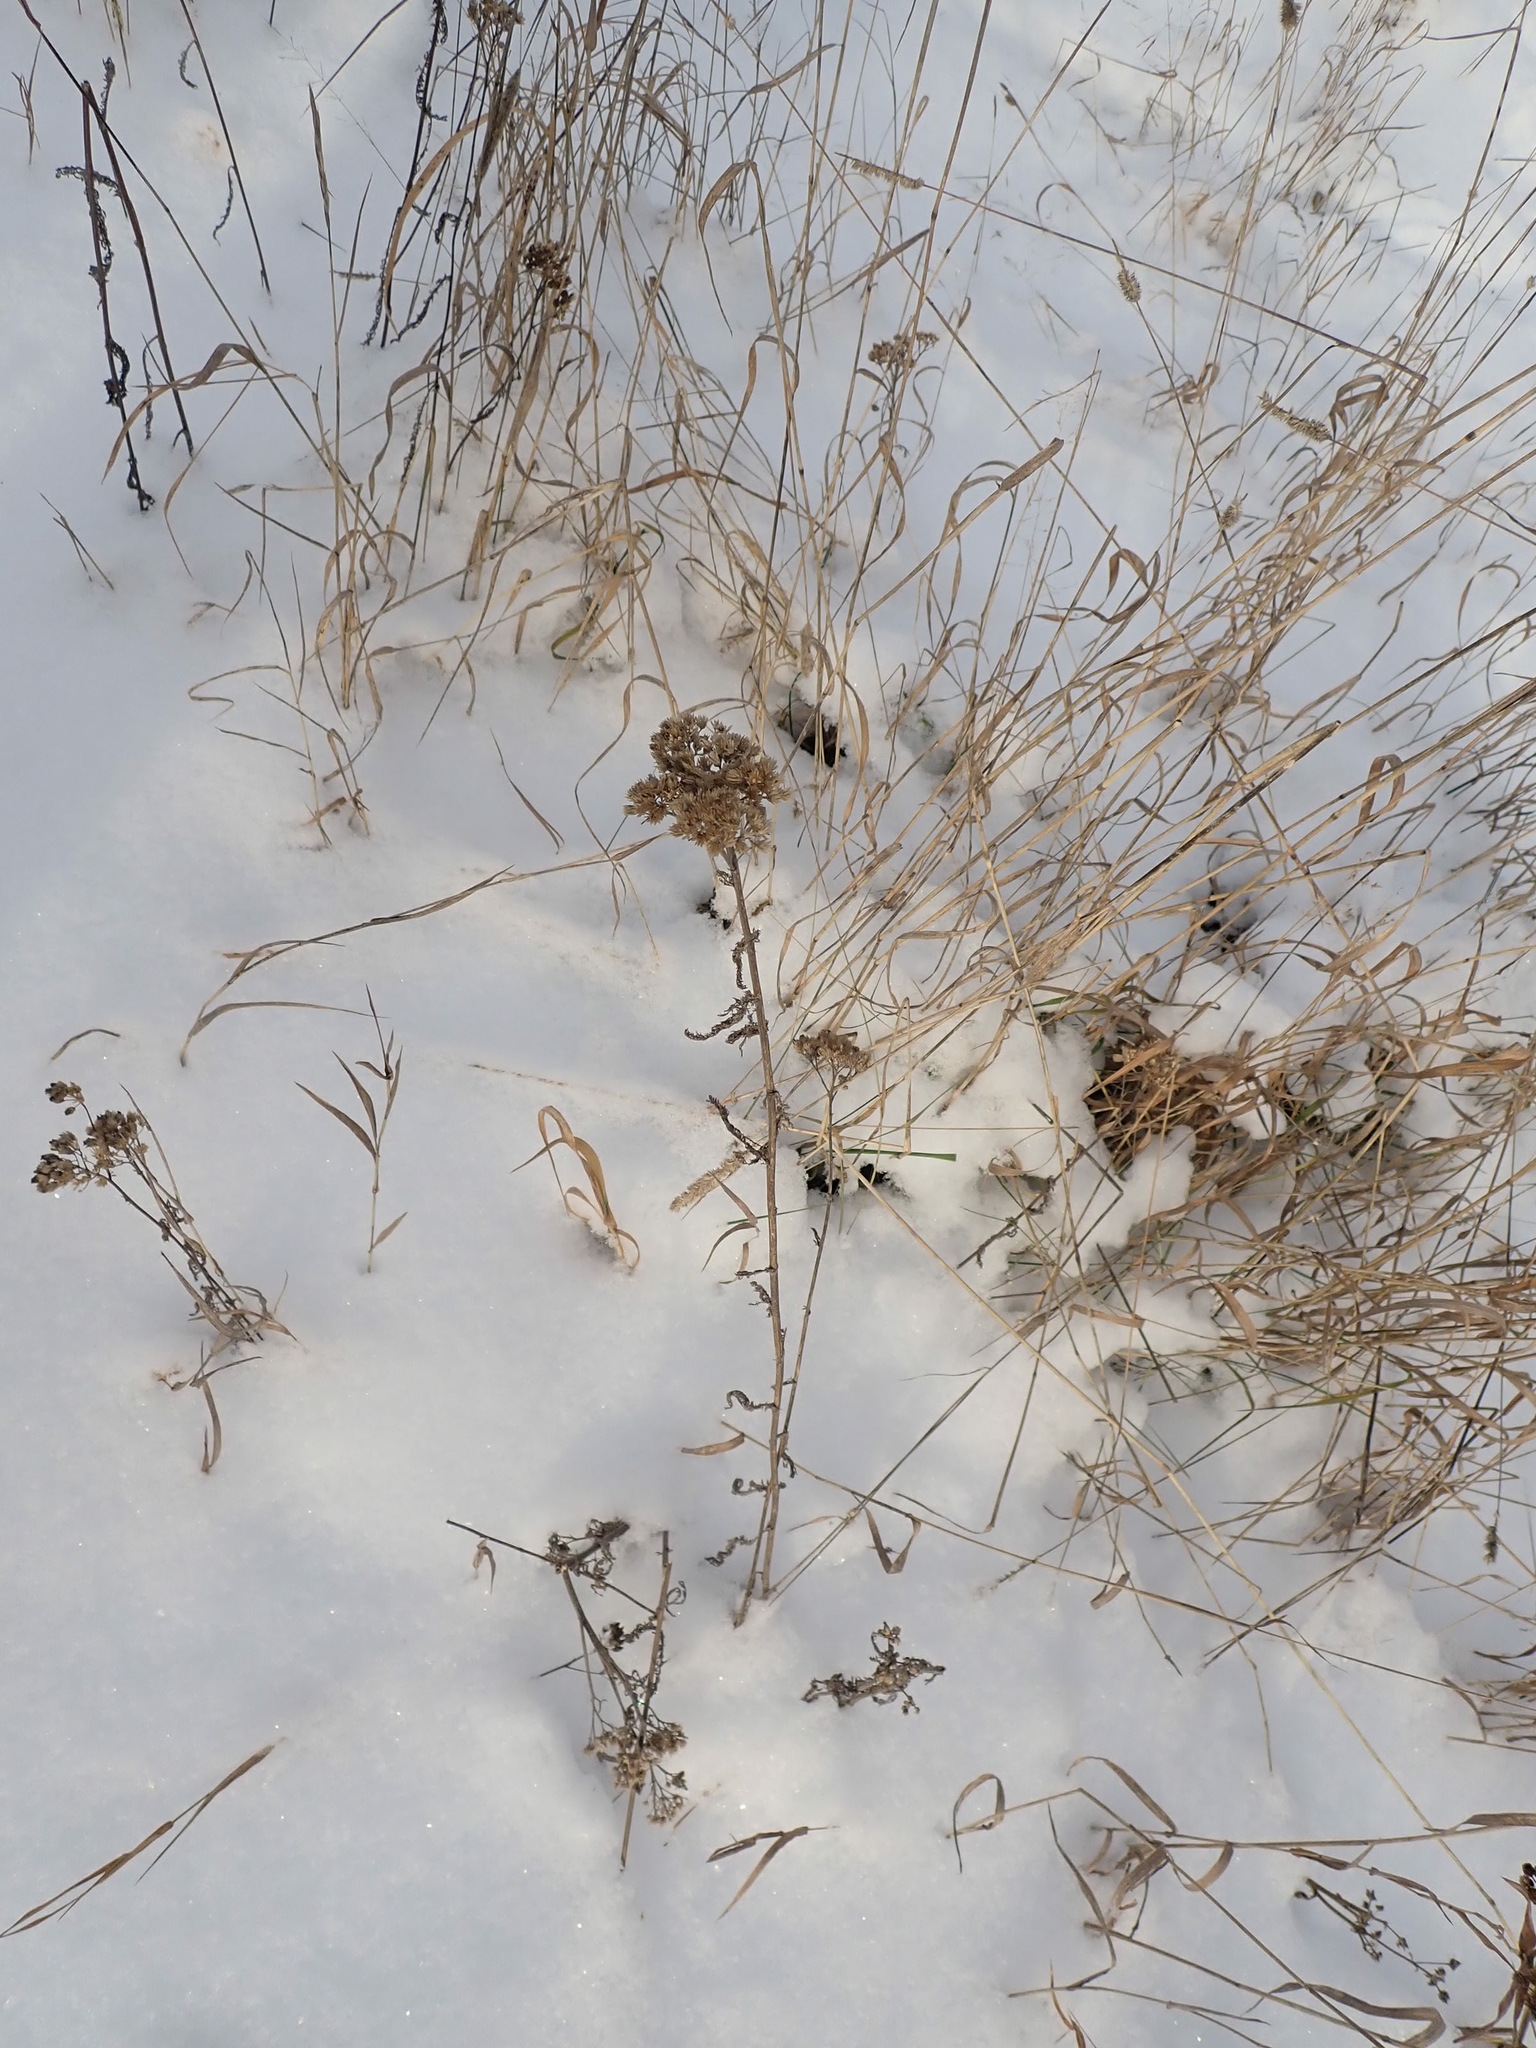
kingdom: Plantae
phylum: Tracheophyta
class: Magnoliopsida
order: Asterales
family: Asteraceae
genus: Achillea
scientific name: Achillea millefolium
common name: Yarrow
